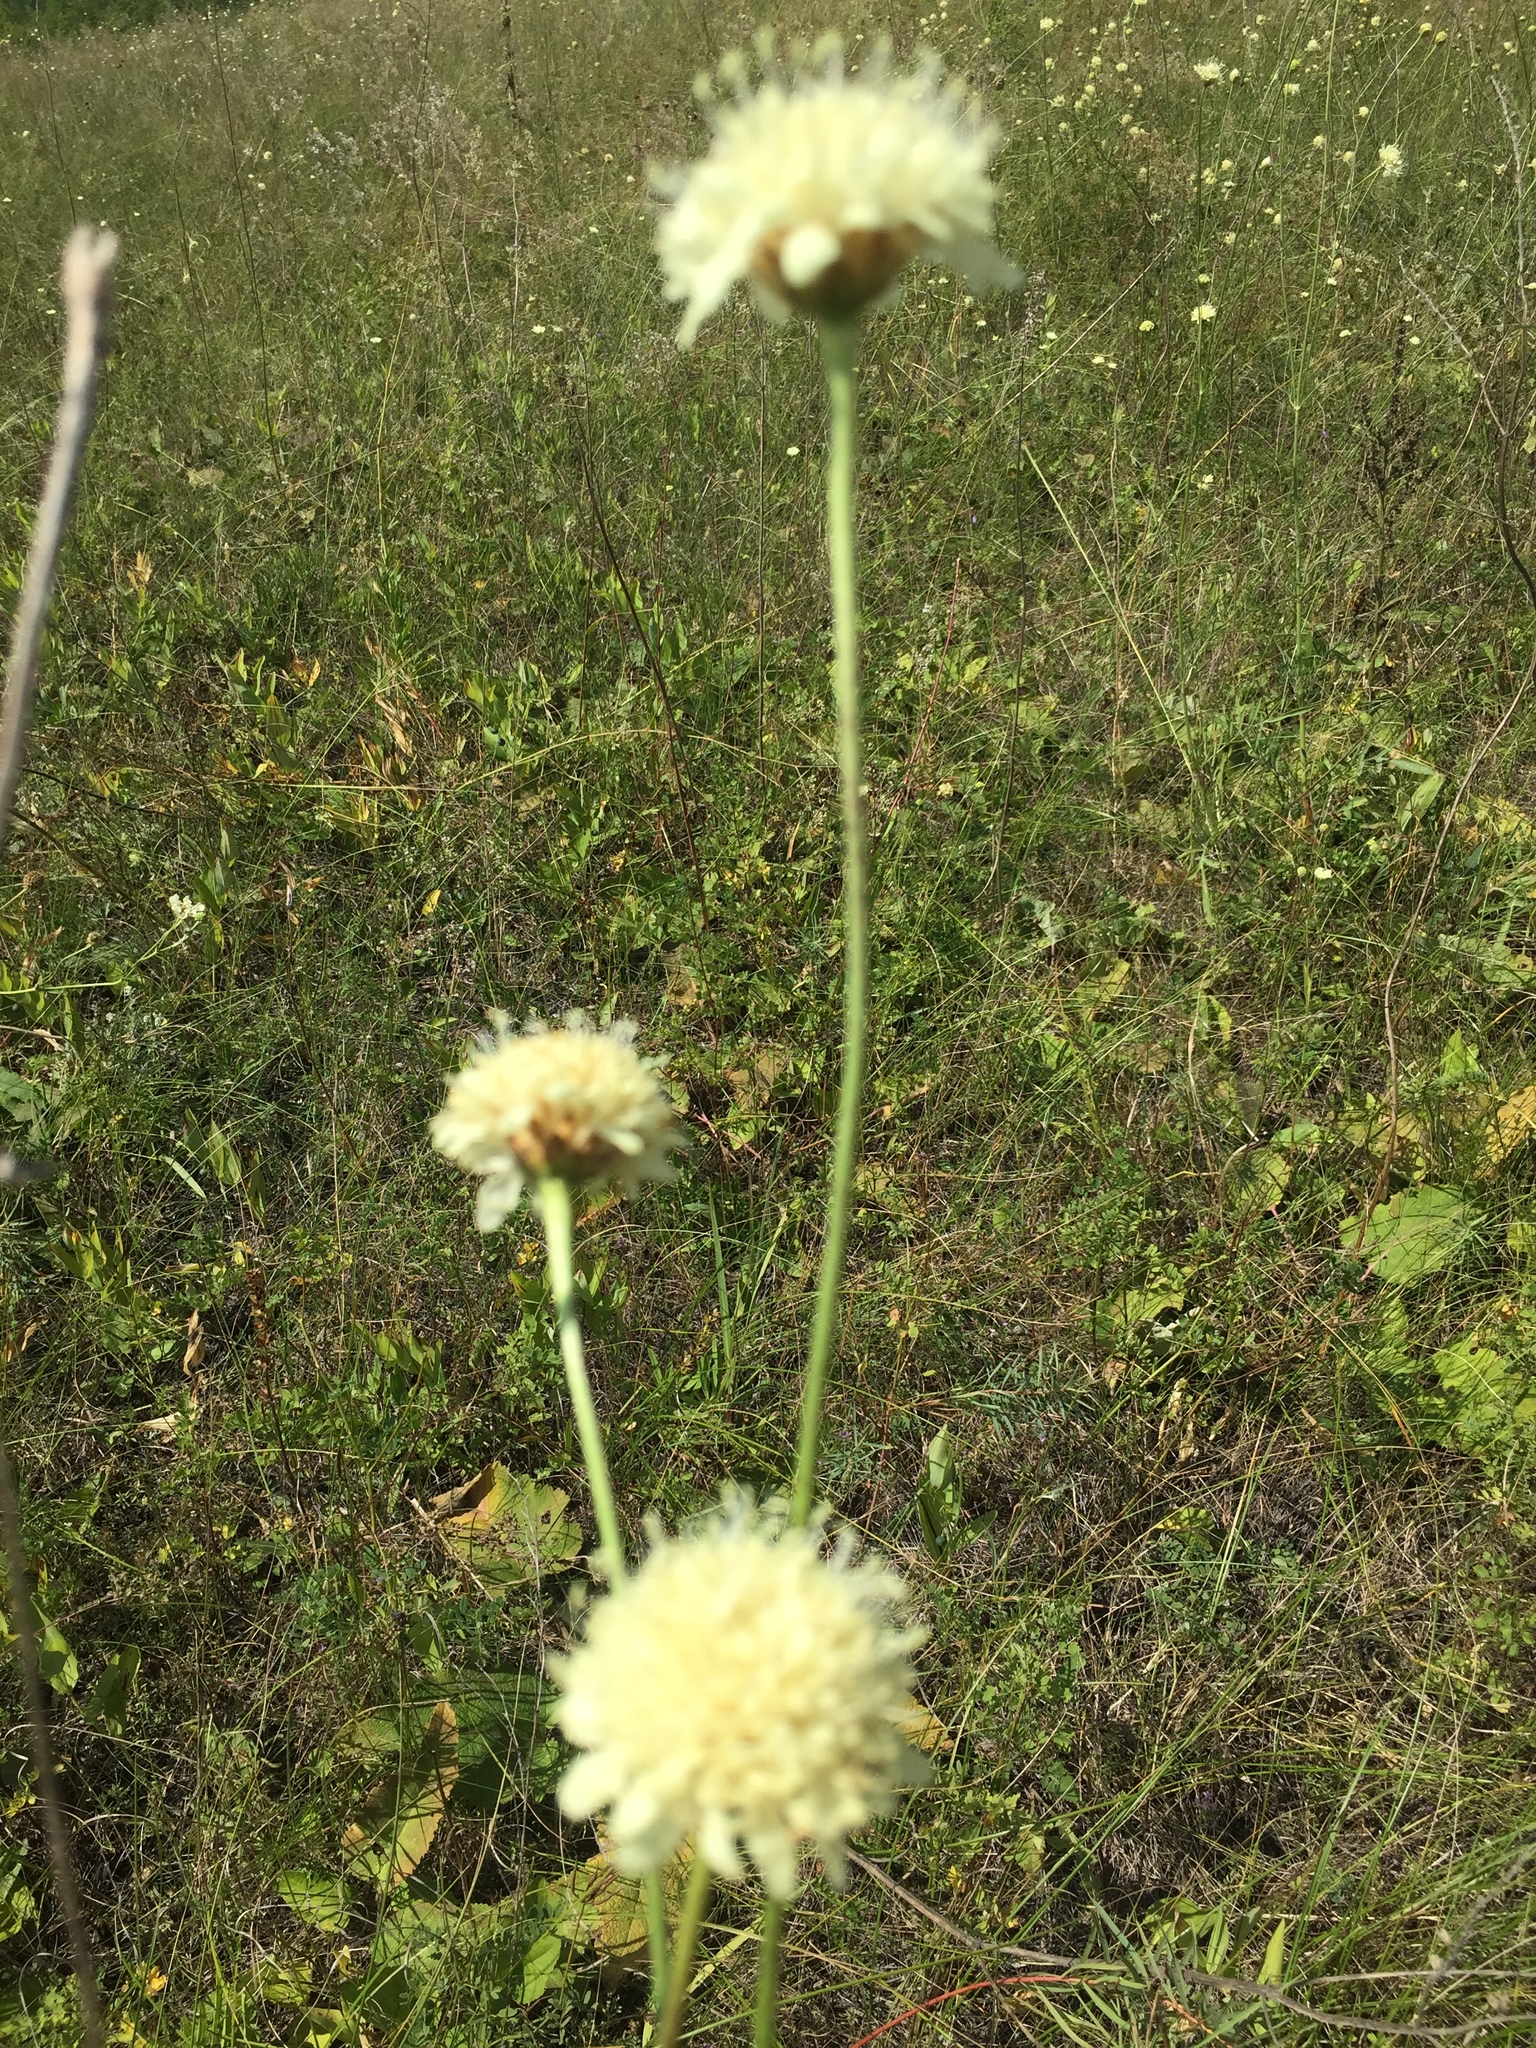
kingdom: Plantae
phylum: Tracheophyta
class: Magnoliopsida
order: Dipsacales
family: Caprifoliaceae
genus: Cephalaria
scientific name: Cephalaria uralensis
